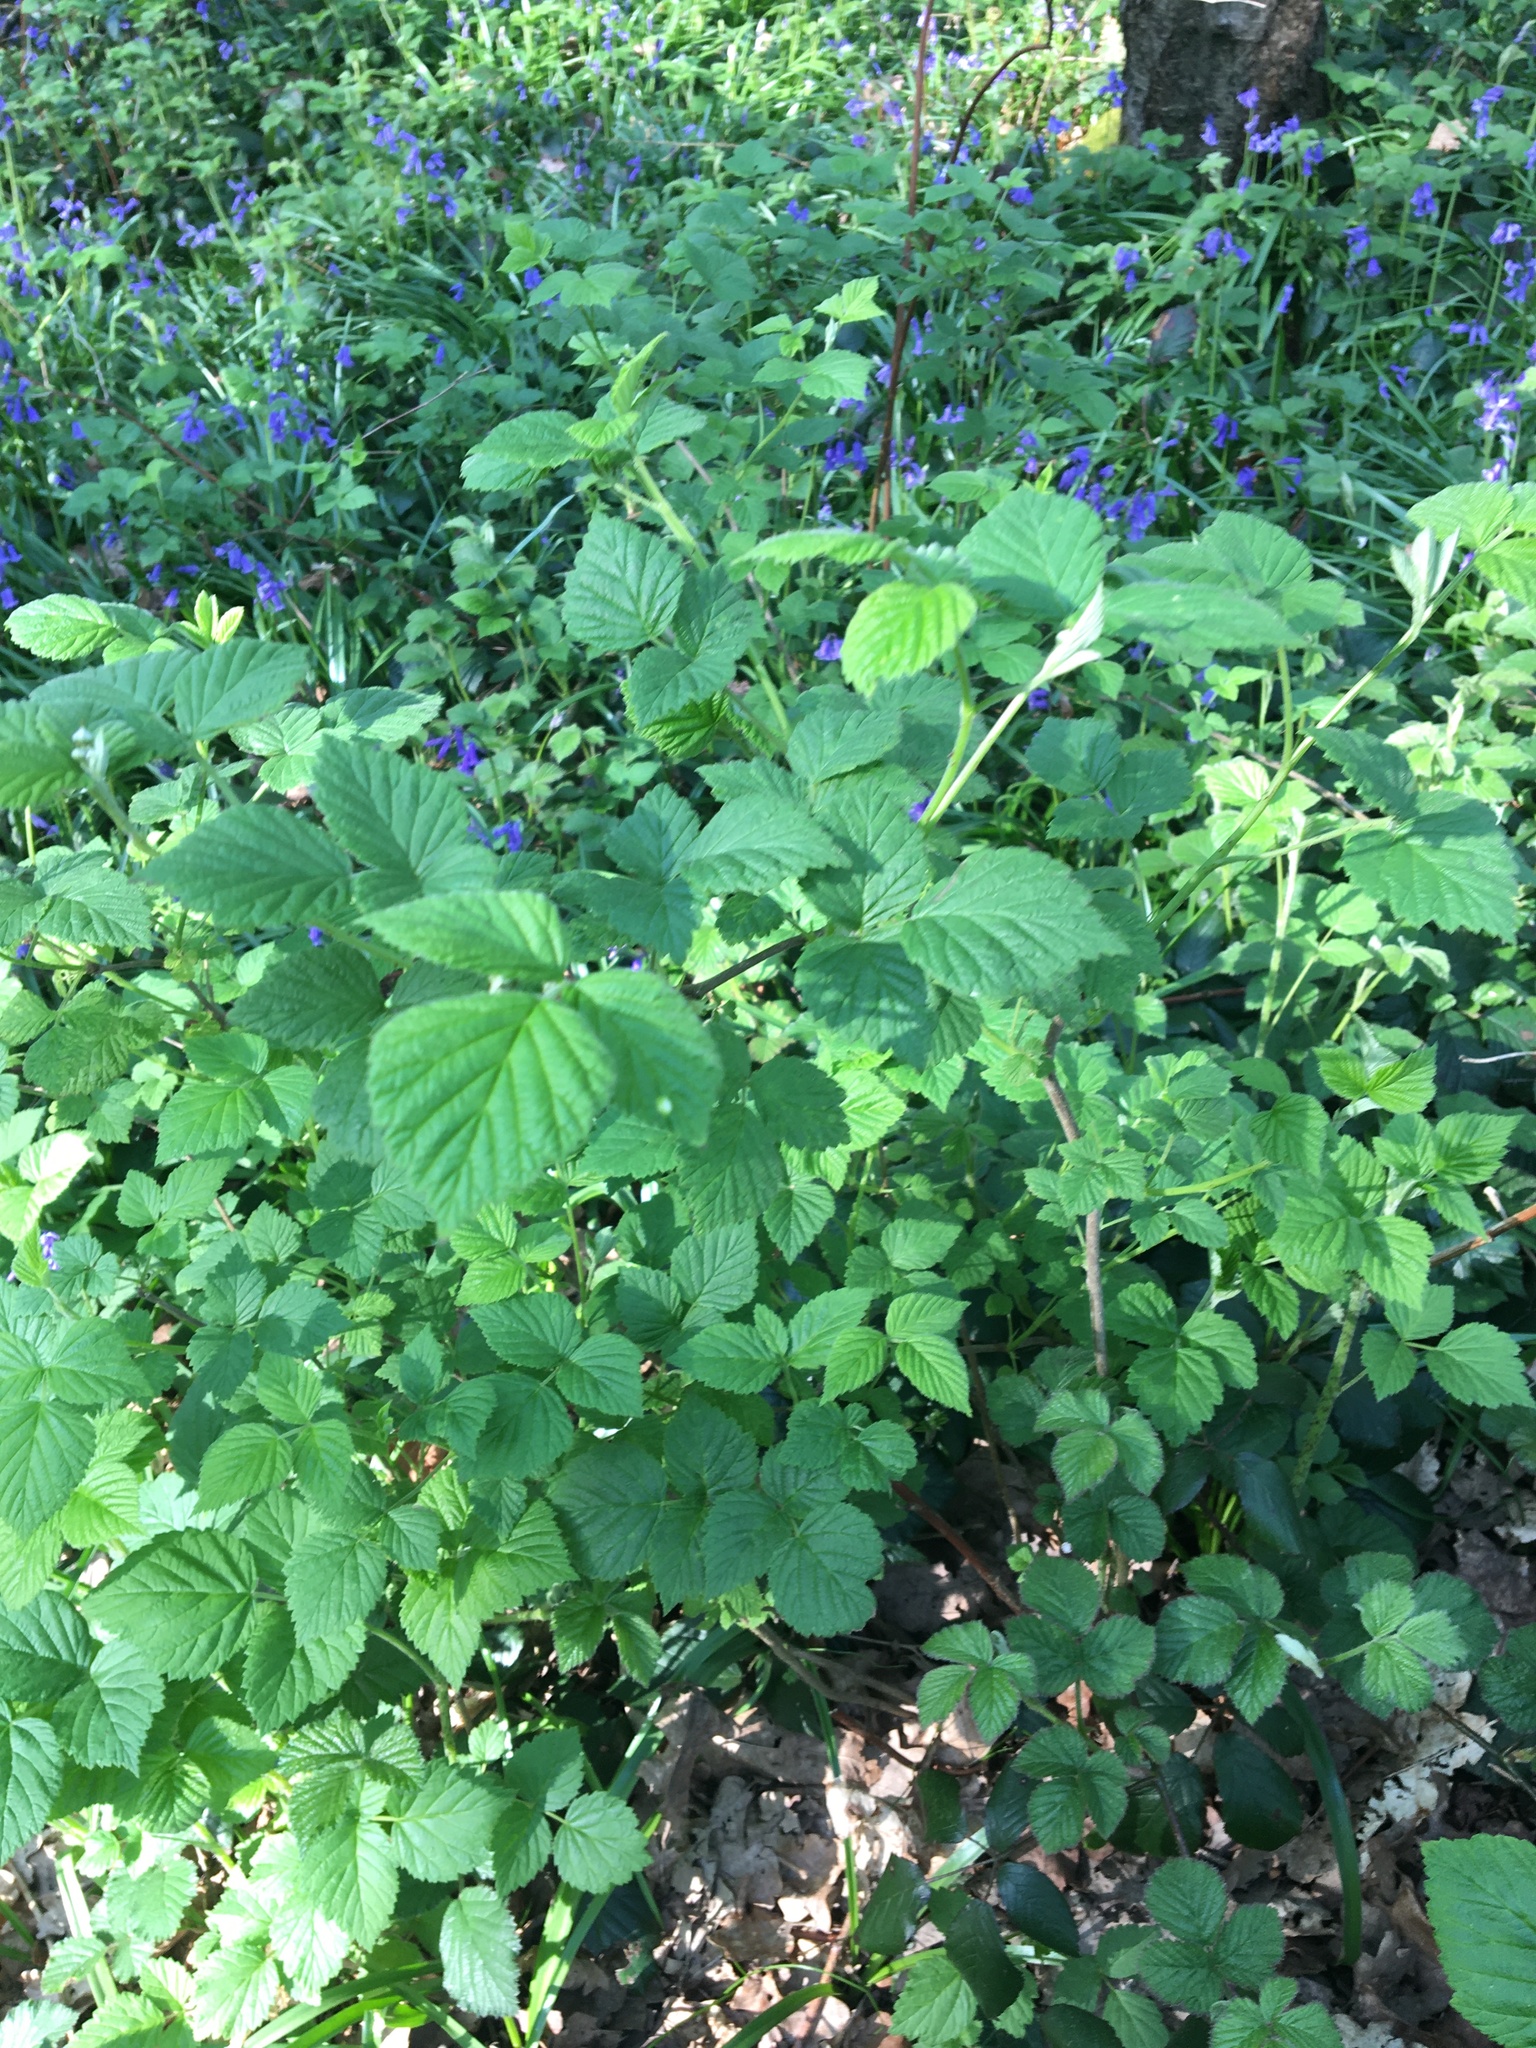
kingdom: Plantae
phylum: Tracheophyta
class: Magnoliopsida
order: Rosales
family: Rosaceae
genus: Rubus
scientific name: Rubus
